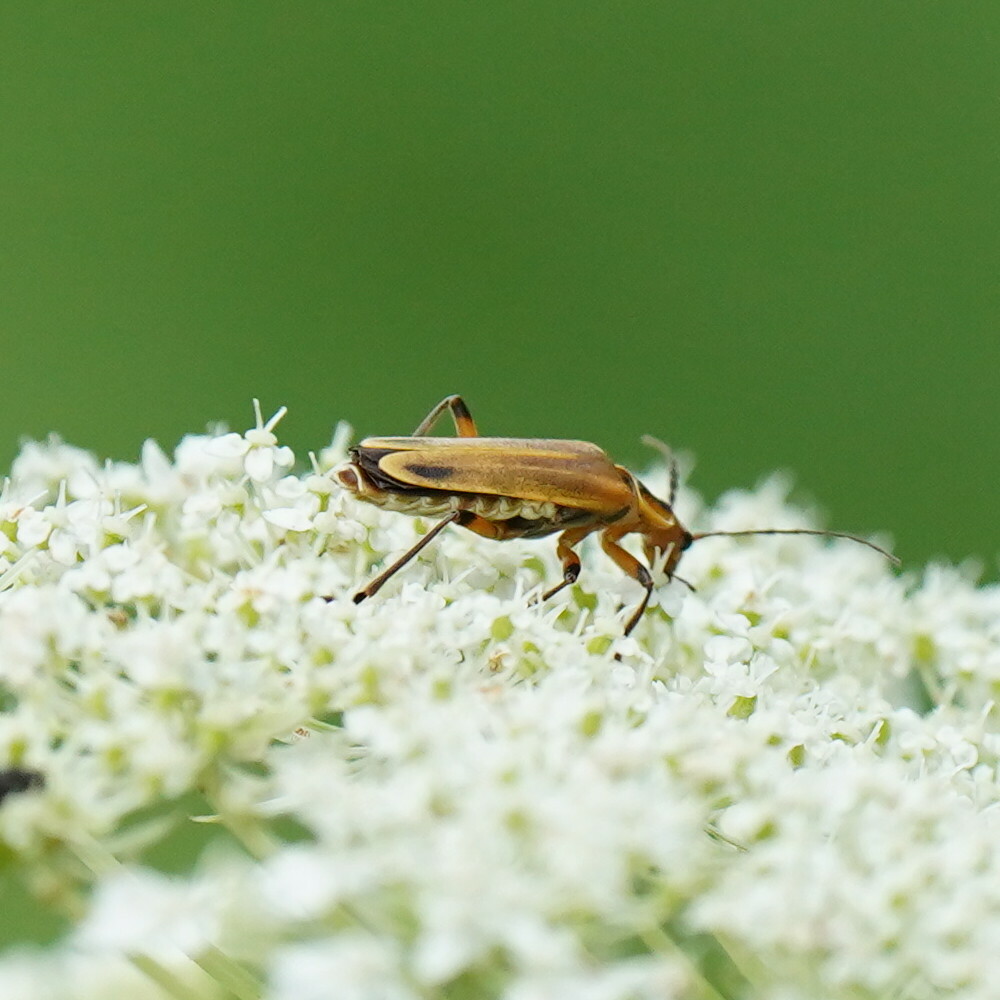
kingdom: Animalia
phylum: Arthropoda
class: Insecta
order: Coleoptera
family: Cantharidae
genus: Chauliognathus
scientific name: Chauliognathus marginatus
